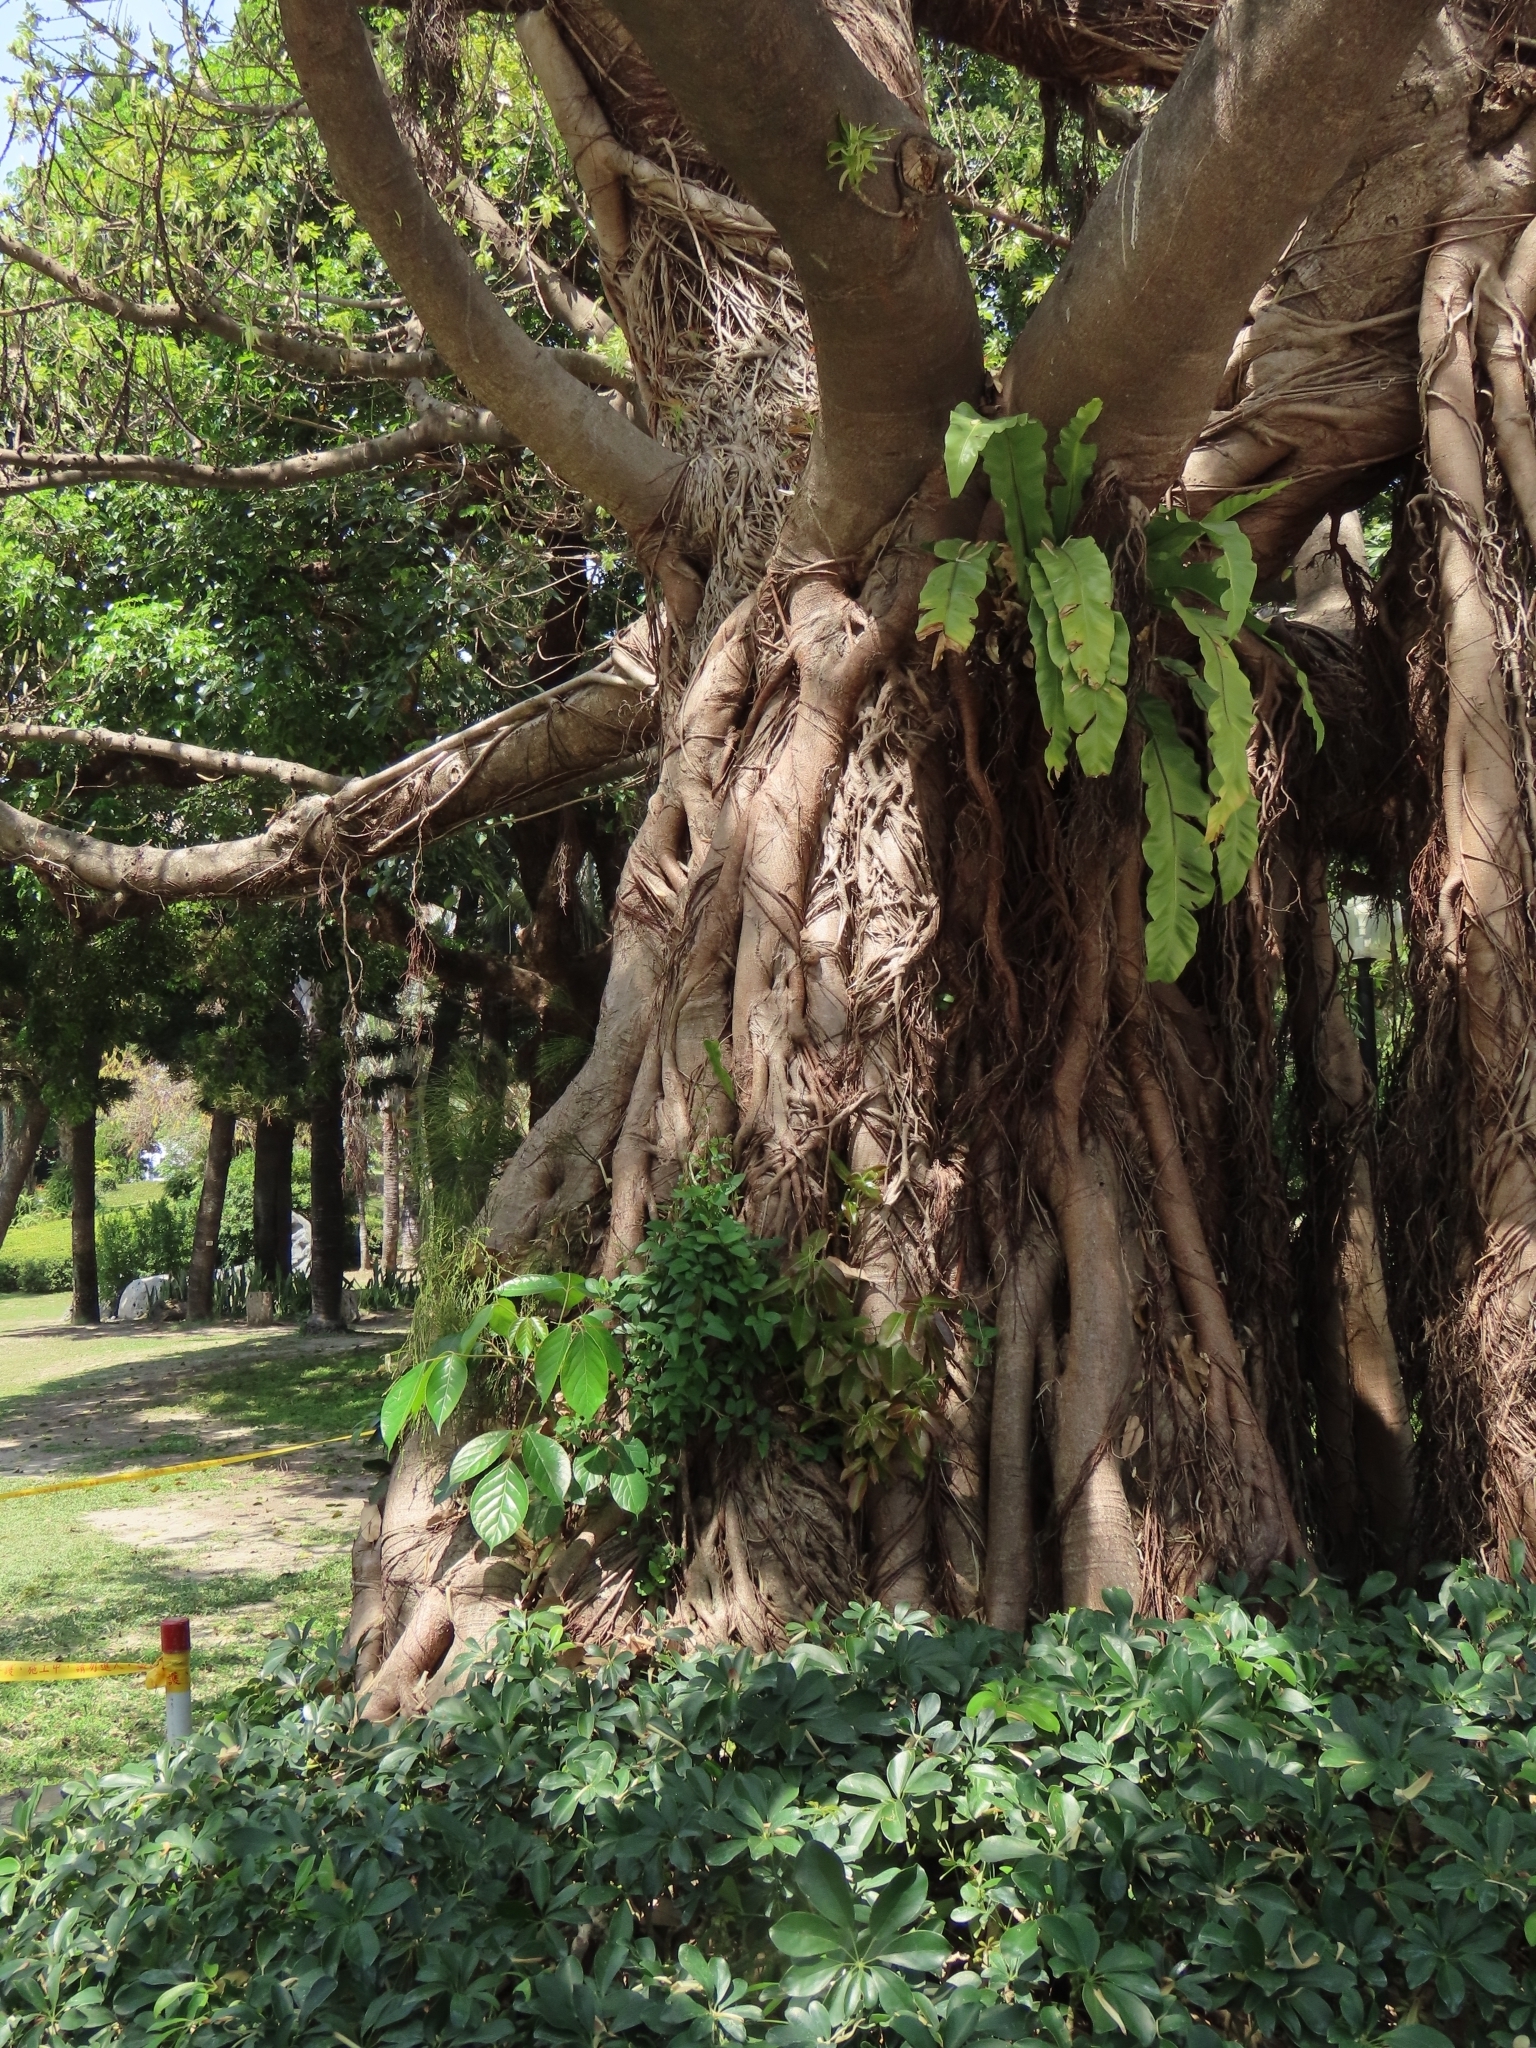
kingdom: Plantae
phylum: Tracheophyta
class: Magnoliopsida
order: Malpighiales
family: Phyllanthaceae
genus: Bischofia
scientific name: Bischofia javanica
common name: Javanese bishopwood
